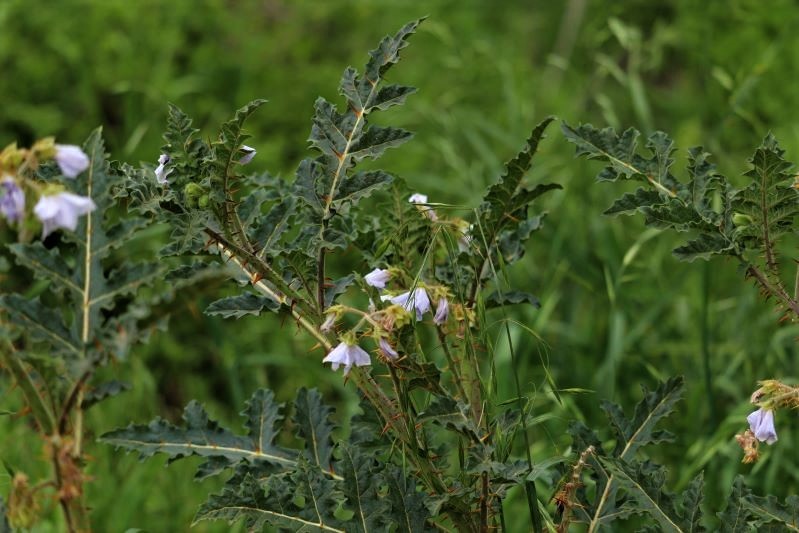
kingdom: Plantae
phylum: Tracheophyta
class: Magnoliopsida
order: Solanales
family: Solanaceae
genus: Solanum
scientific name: Solanum sisymbriifolium
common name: Red buffalo-bur
